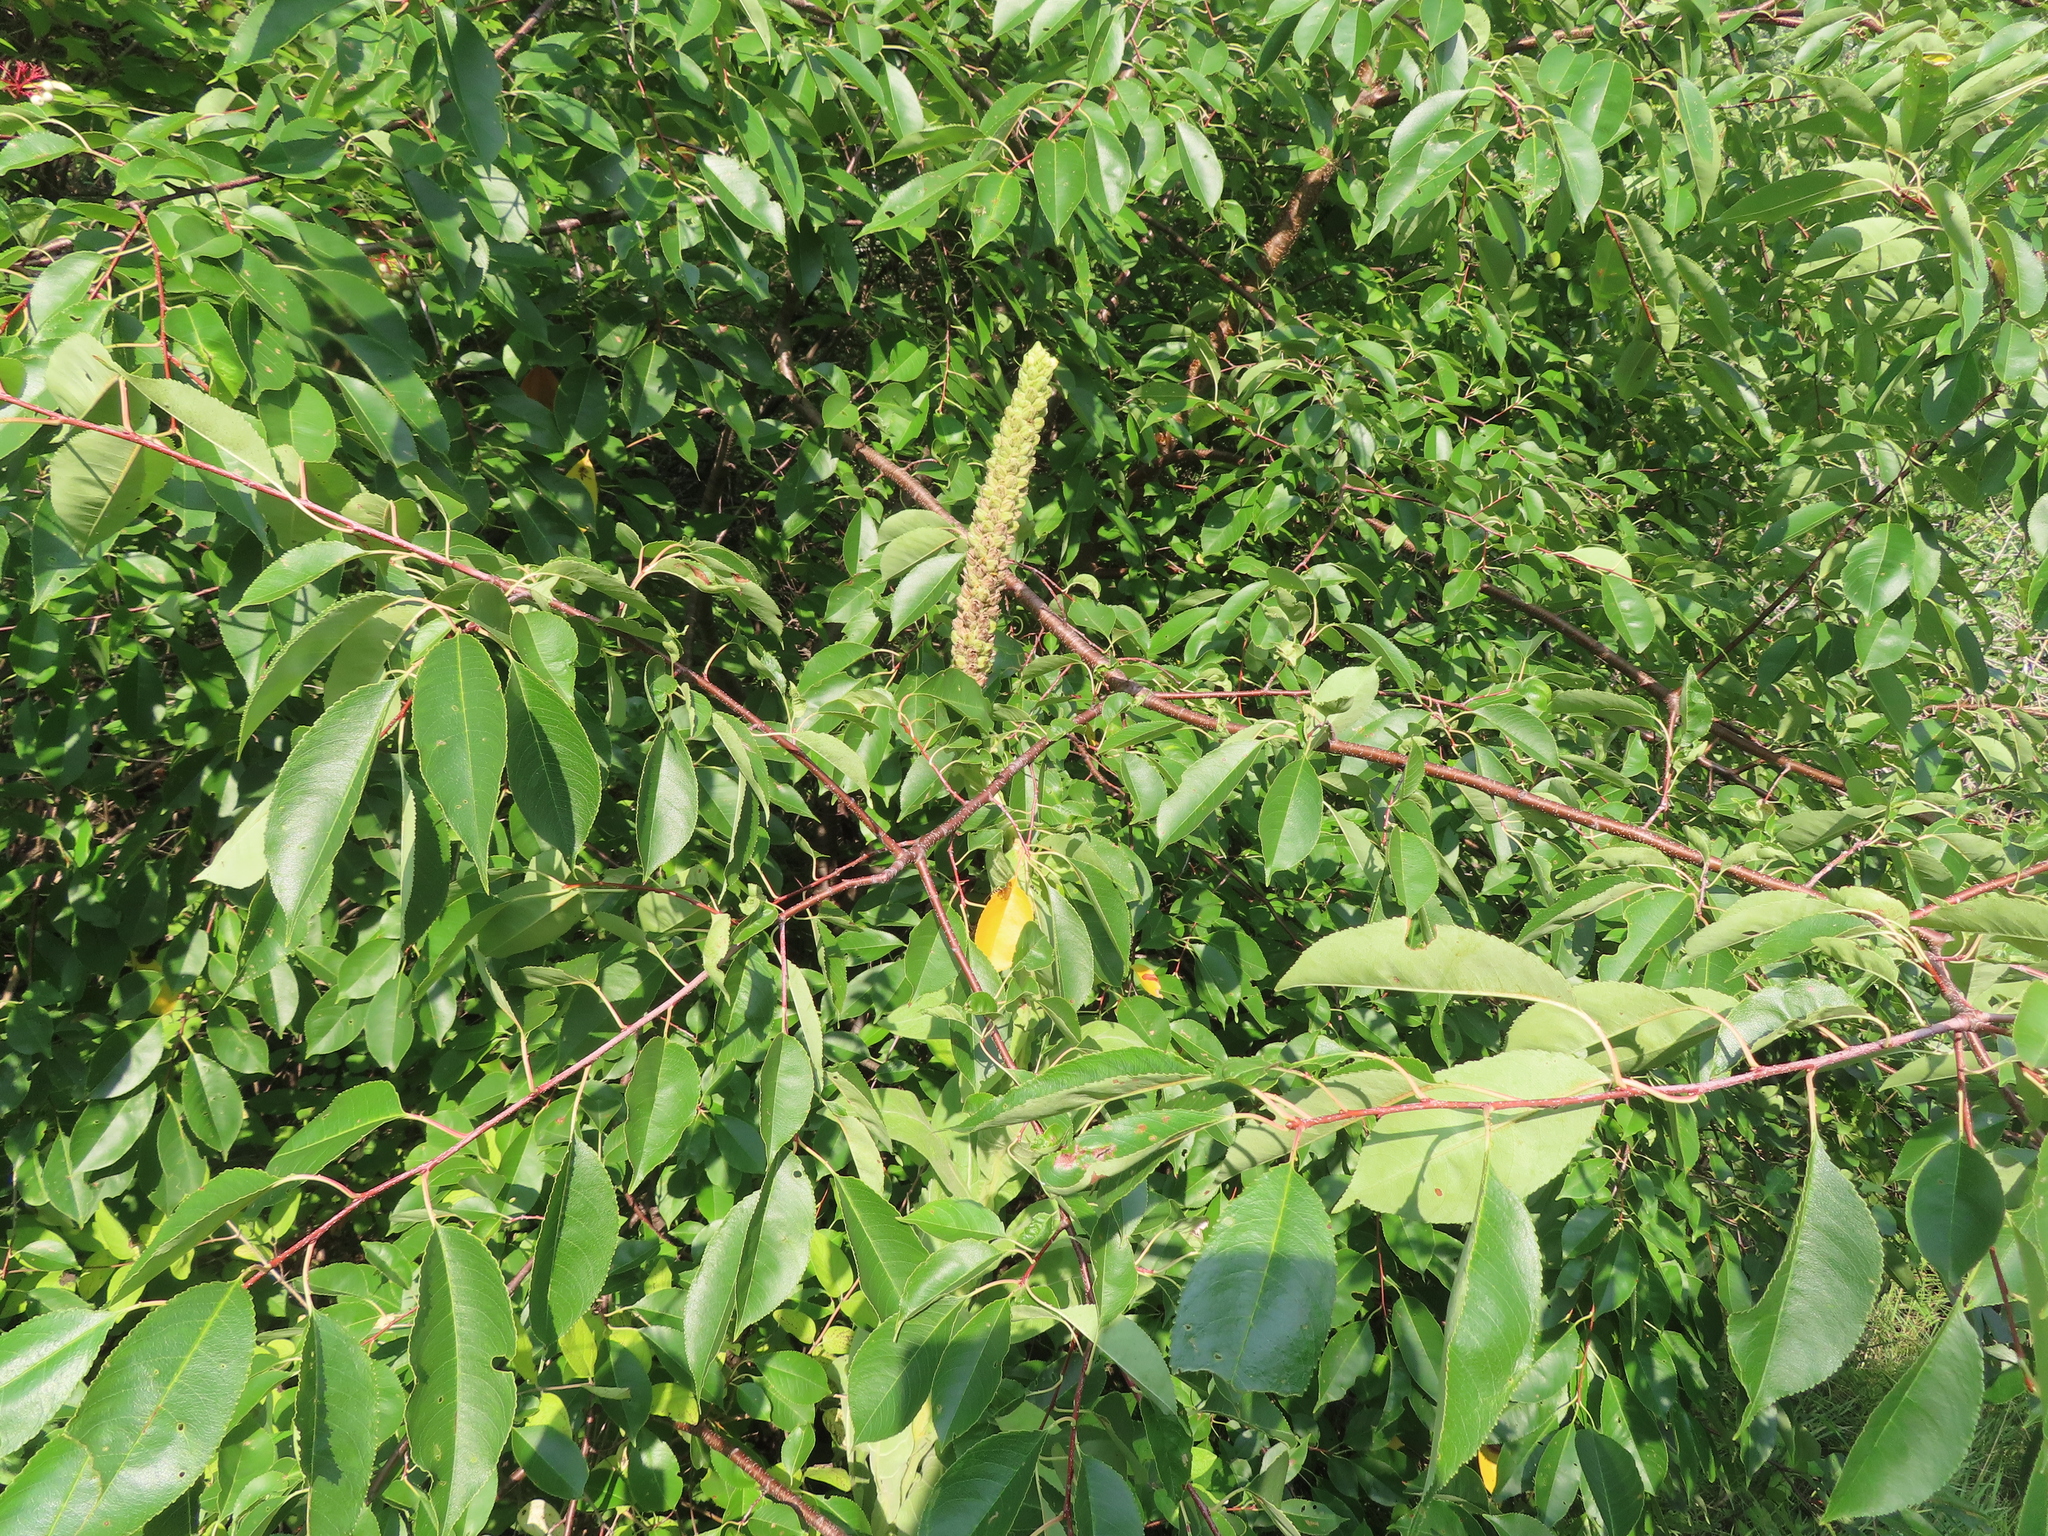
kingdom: Plantae
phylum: Tracheophyta
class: Magnoliopsida
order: Lamiales
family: Scrophulariaceae
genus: Verbascum
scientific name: Verbascum thapsus
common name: Common mullein
